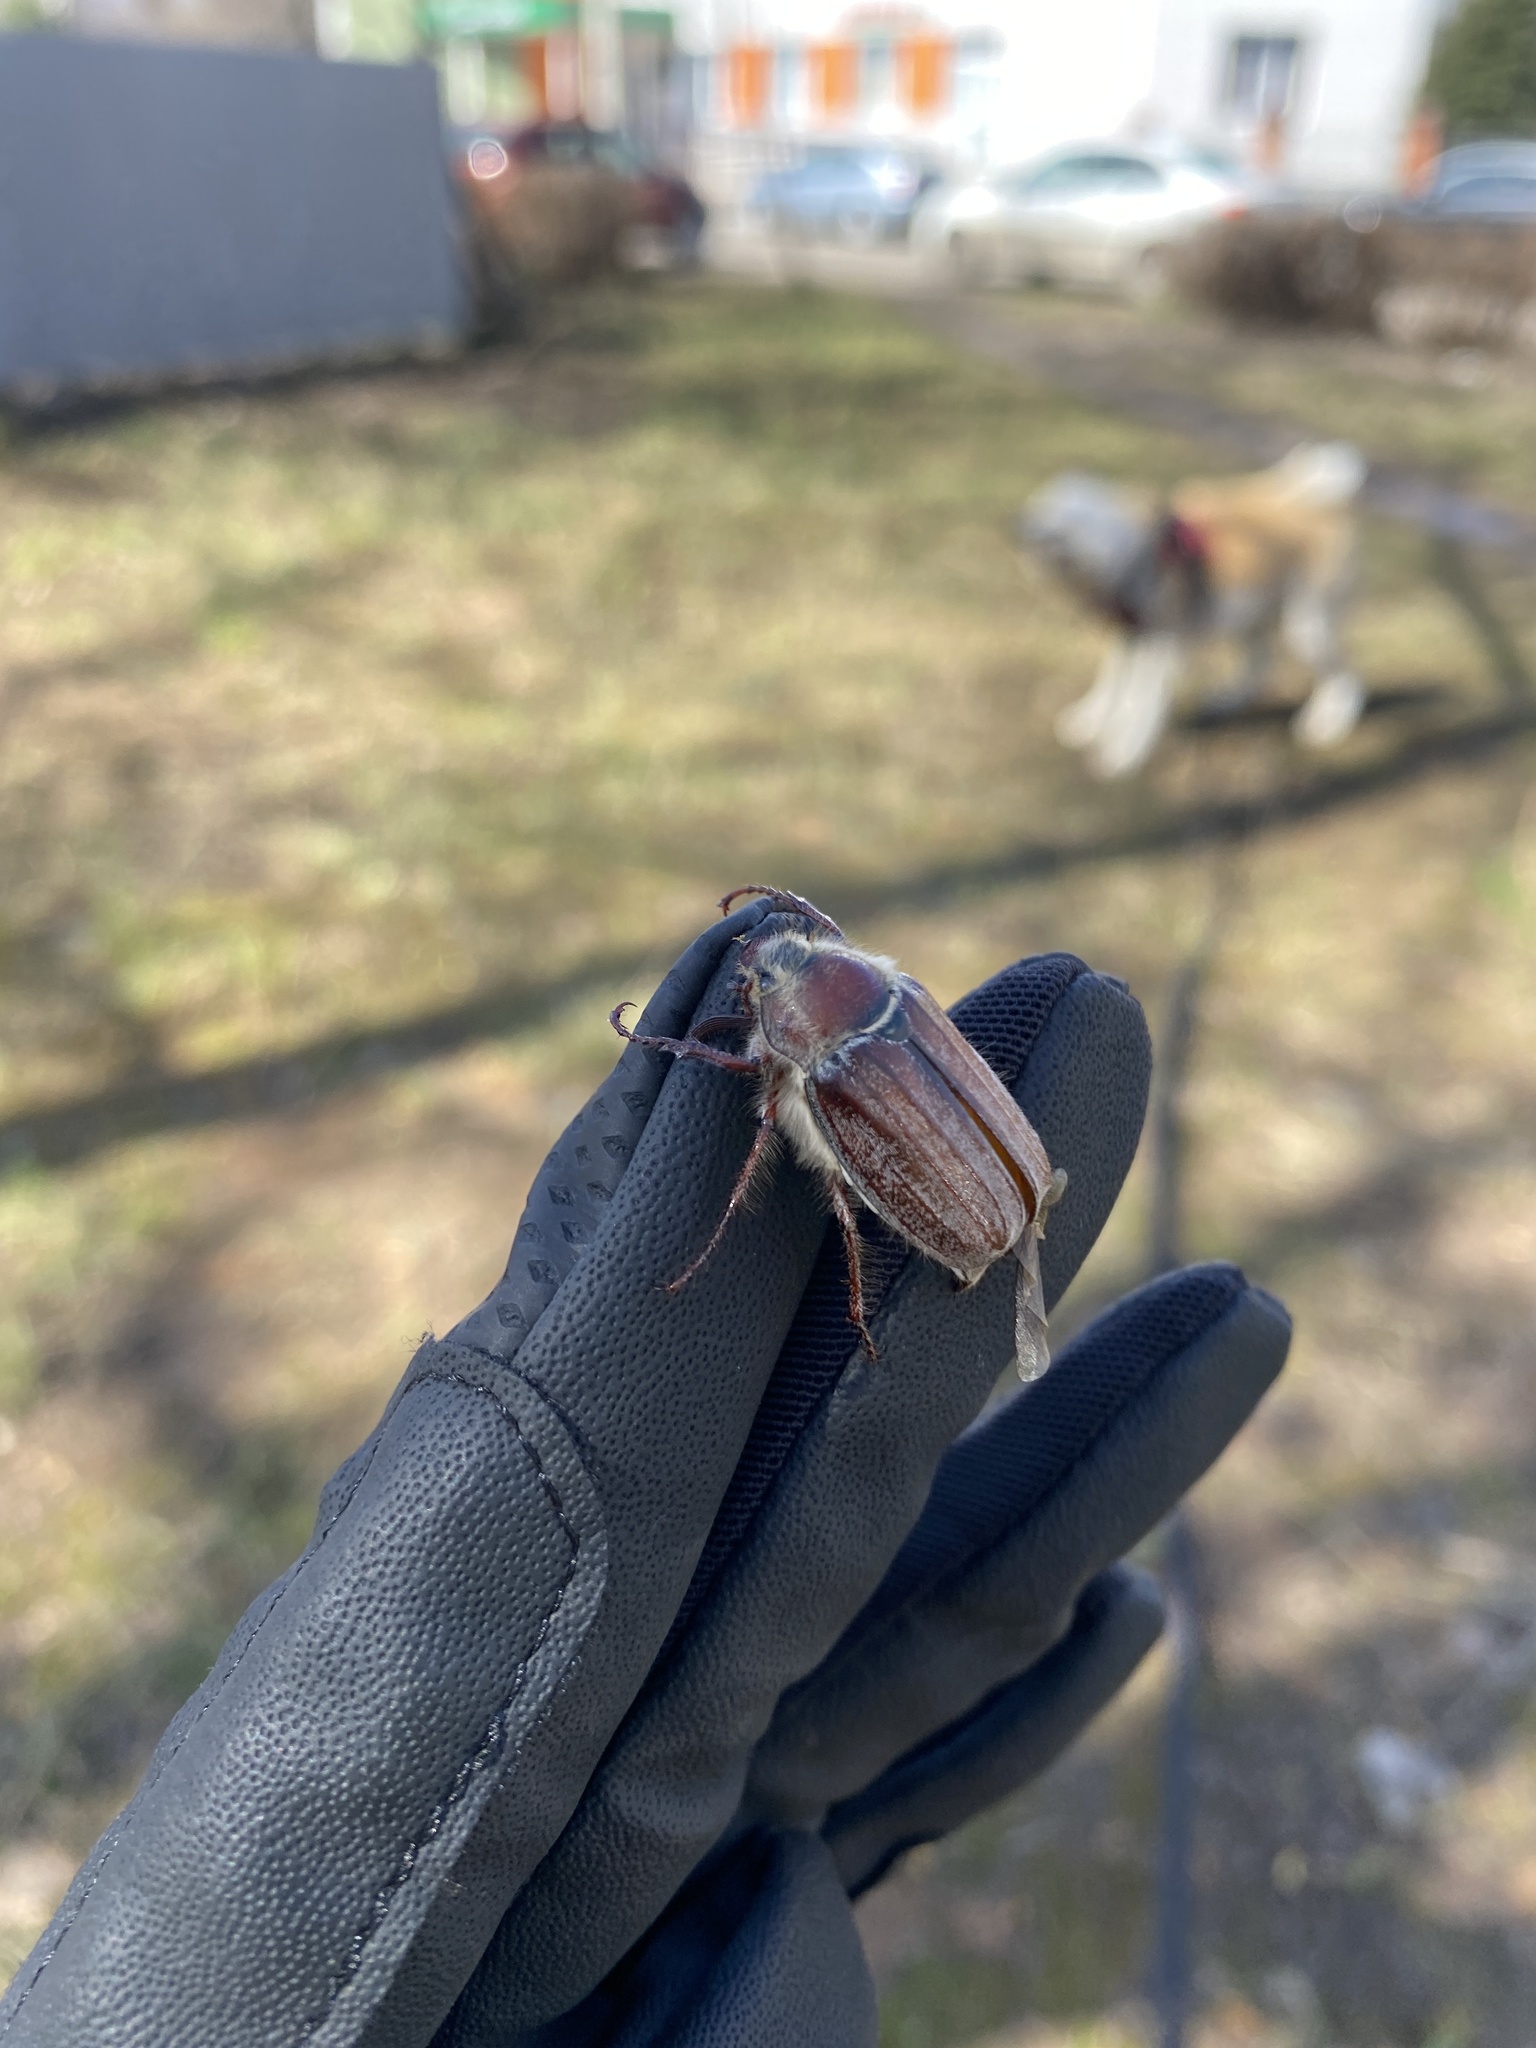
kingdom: Animalia
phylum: Arthropoda
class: Insecta
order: Coleoptera
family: Scarabaeidae
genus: Melolontha
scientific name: Melolontha hippocastani
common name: Chestnut cockchafer
